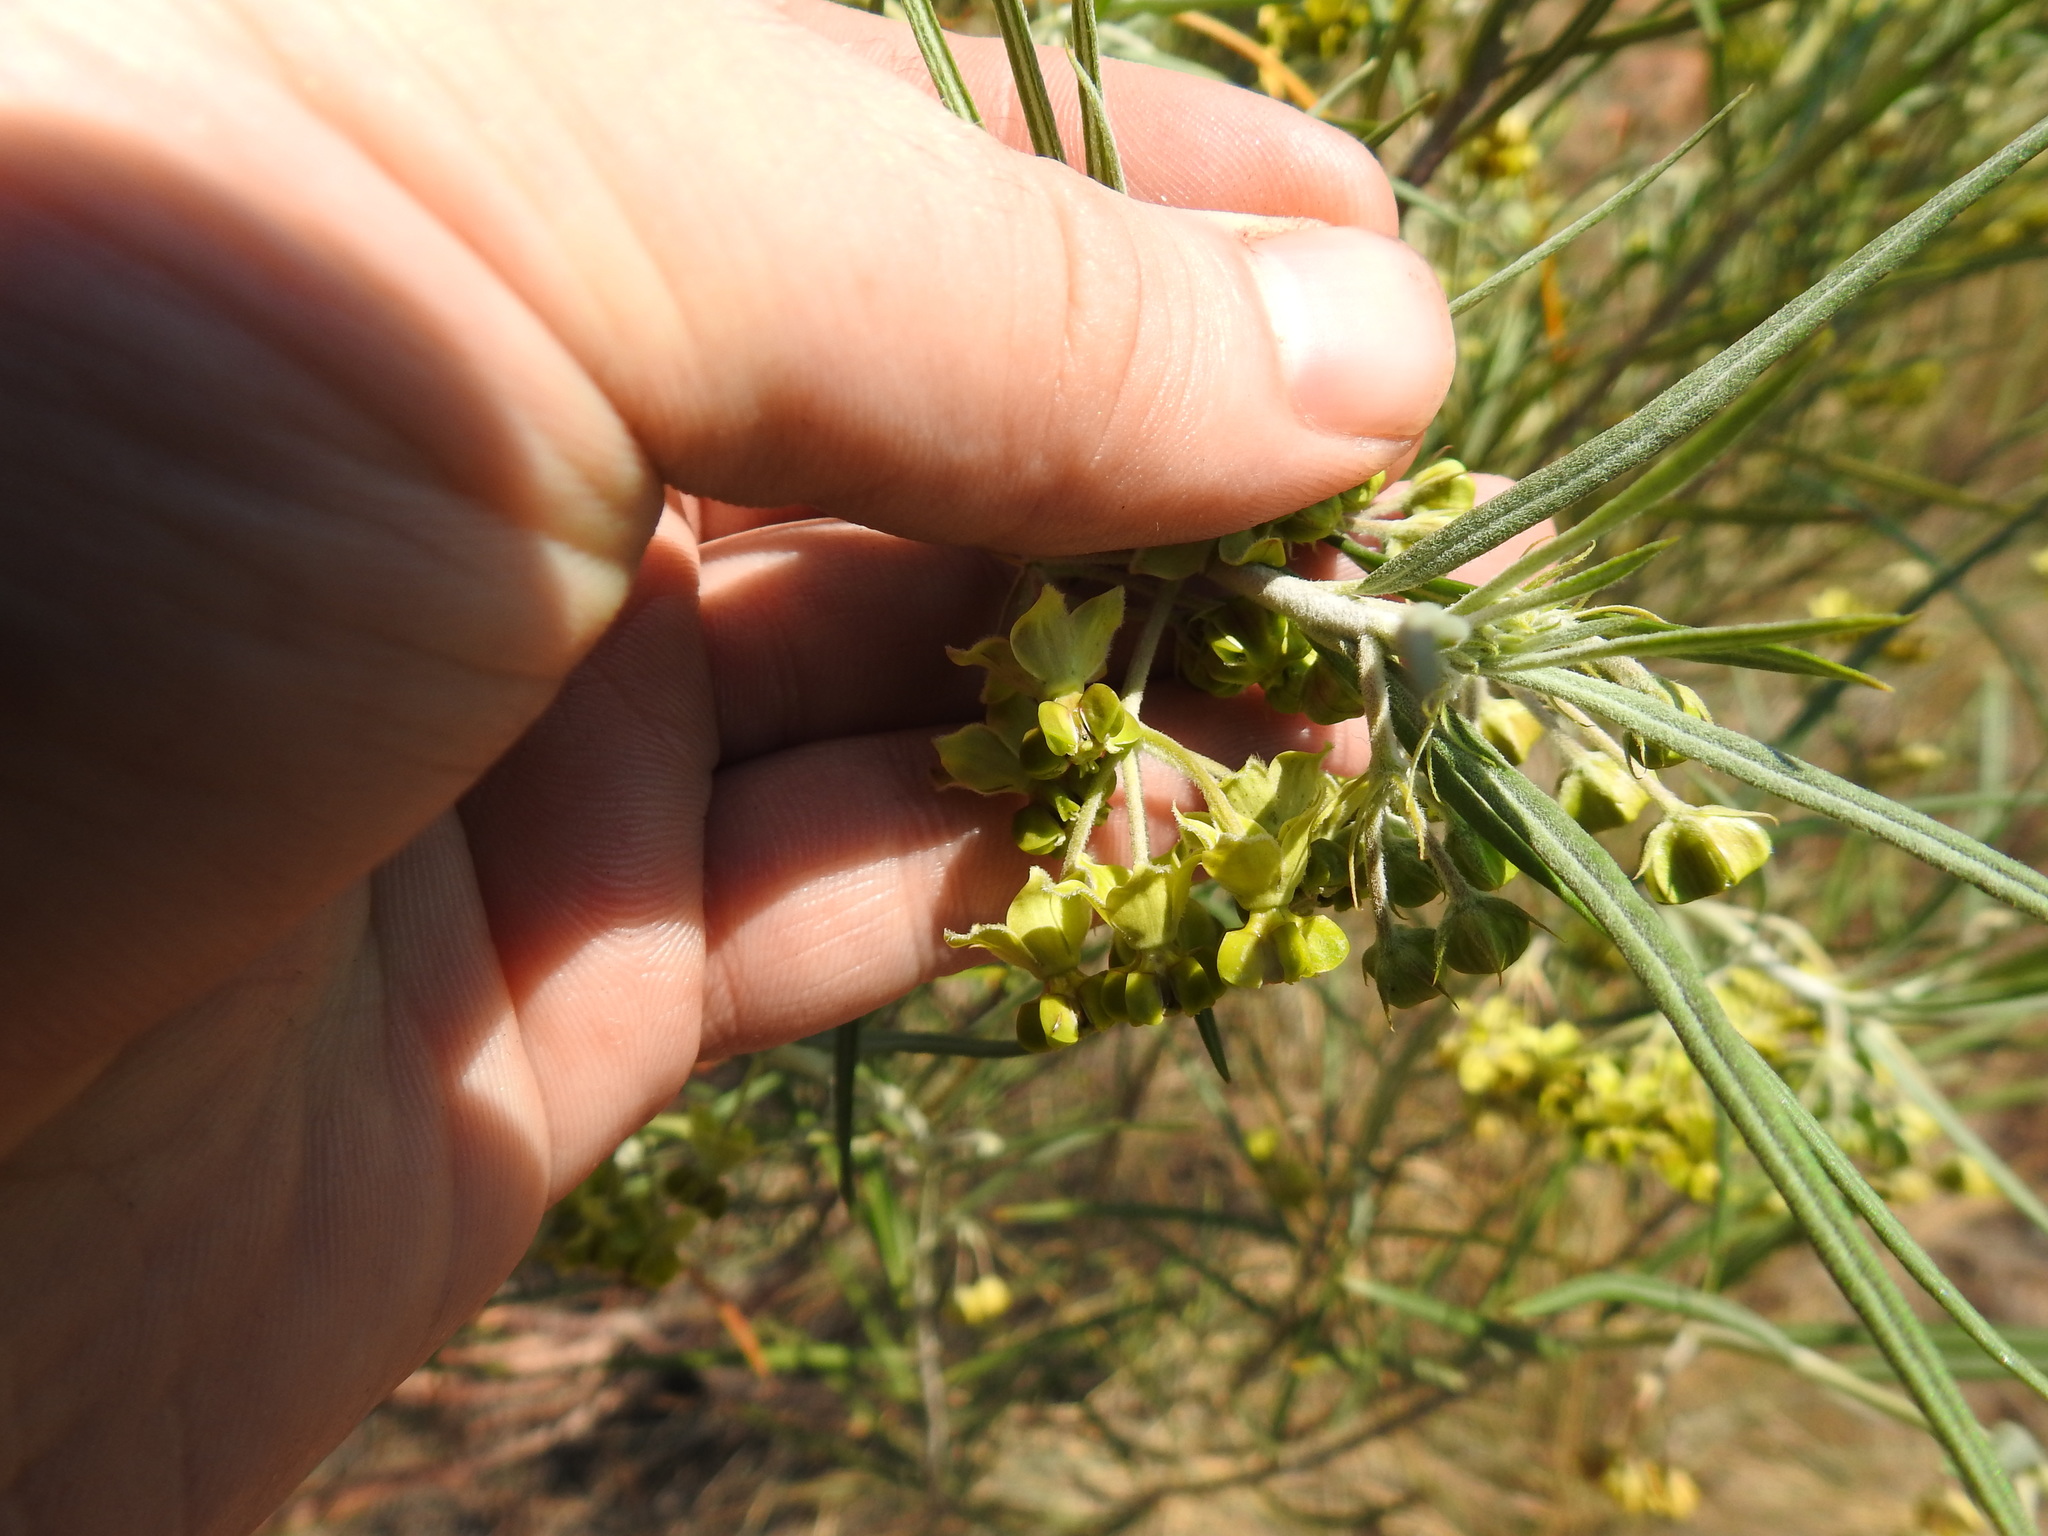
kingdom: Plantae
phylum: Tracheophyta
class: Magnoliopsida
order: Gentianales
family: Apocynaceae
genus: Gomphocarpus
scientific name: Gomphocarpus fruticosus
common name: Milkweed
